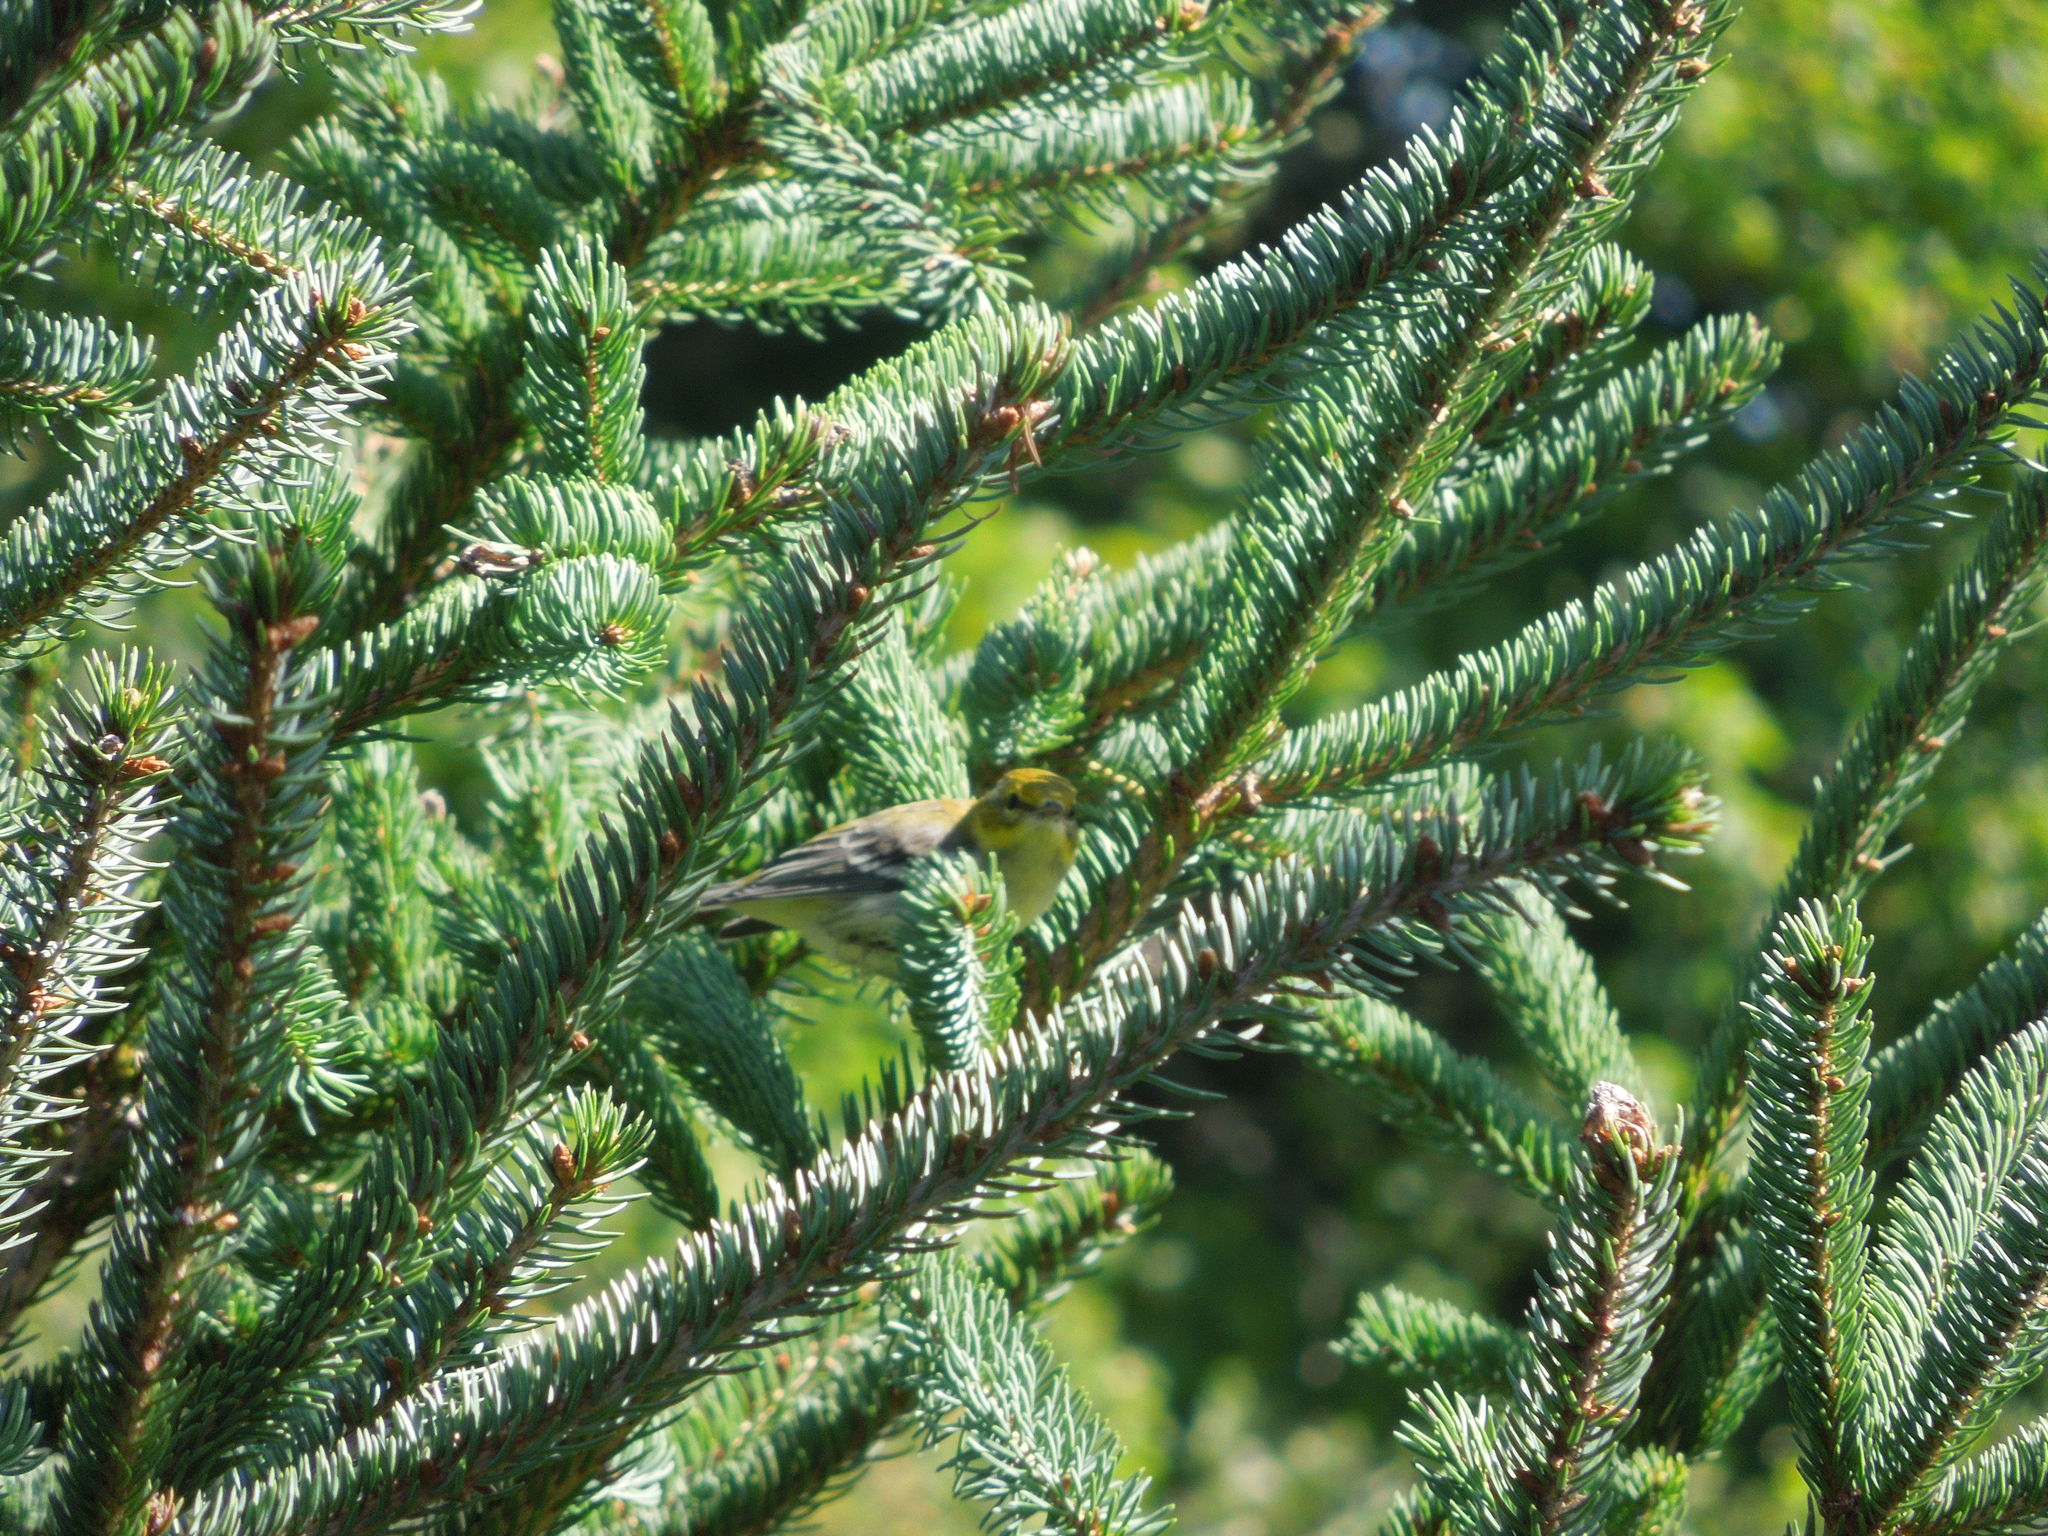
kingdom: Animalia
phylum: Chordata
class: Aves
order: Passeriformes
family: Parulidae
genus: Setophaga
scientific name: Setophaga pinus
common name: Pine warbler
